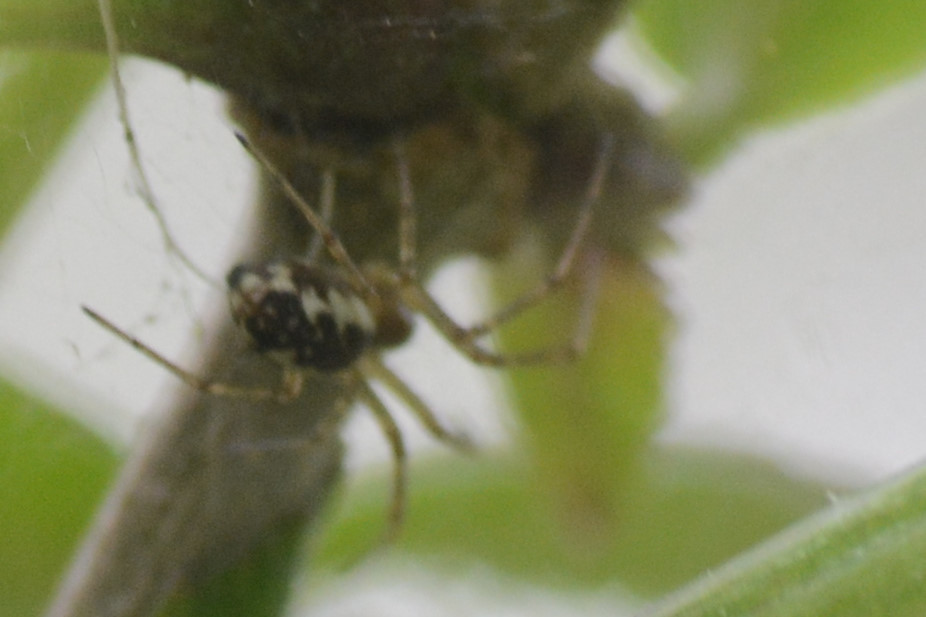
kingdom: Animalia
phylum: Arthropoda
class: Arachnida
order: Araneae
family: Linyphiidae
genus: Neriene
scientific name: Neriene peltata
